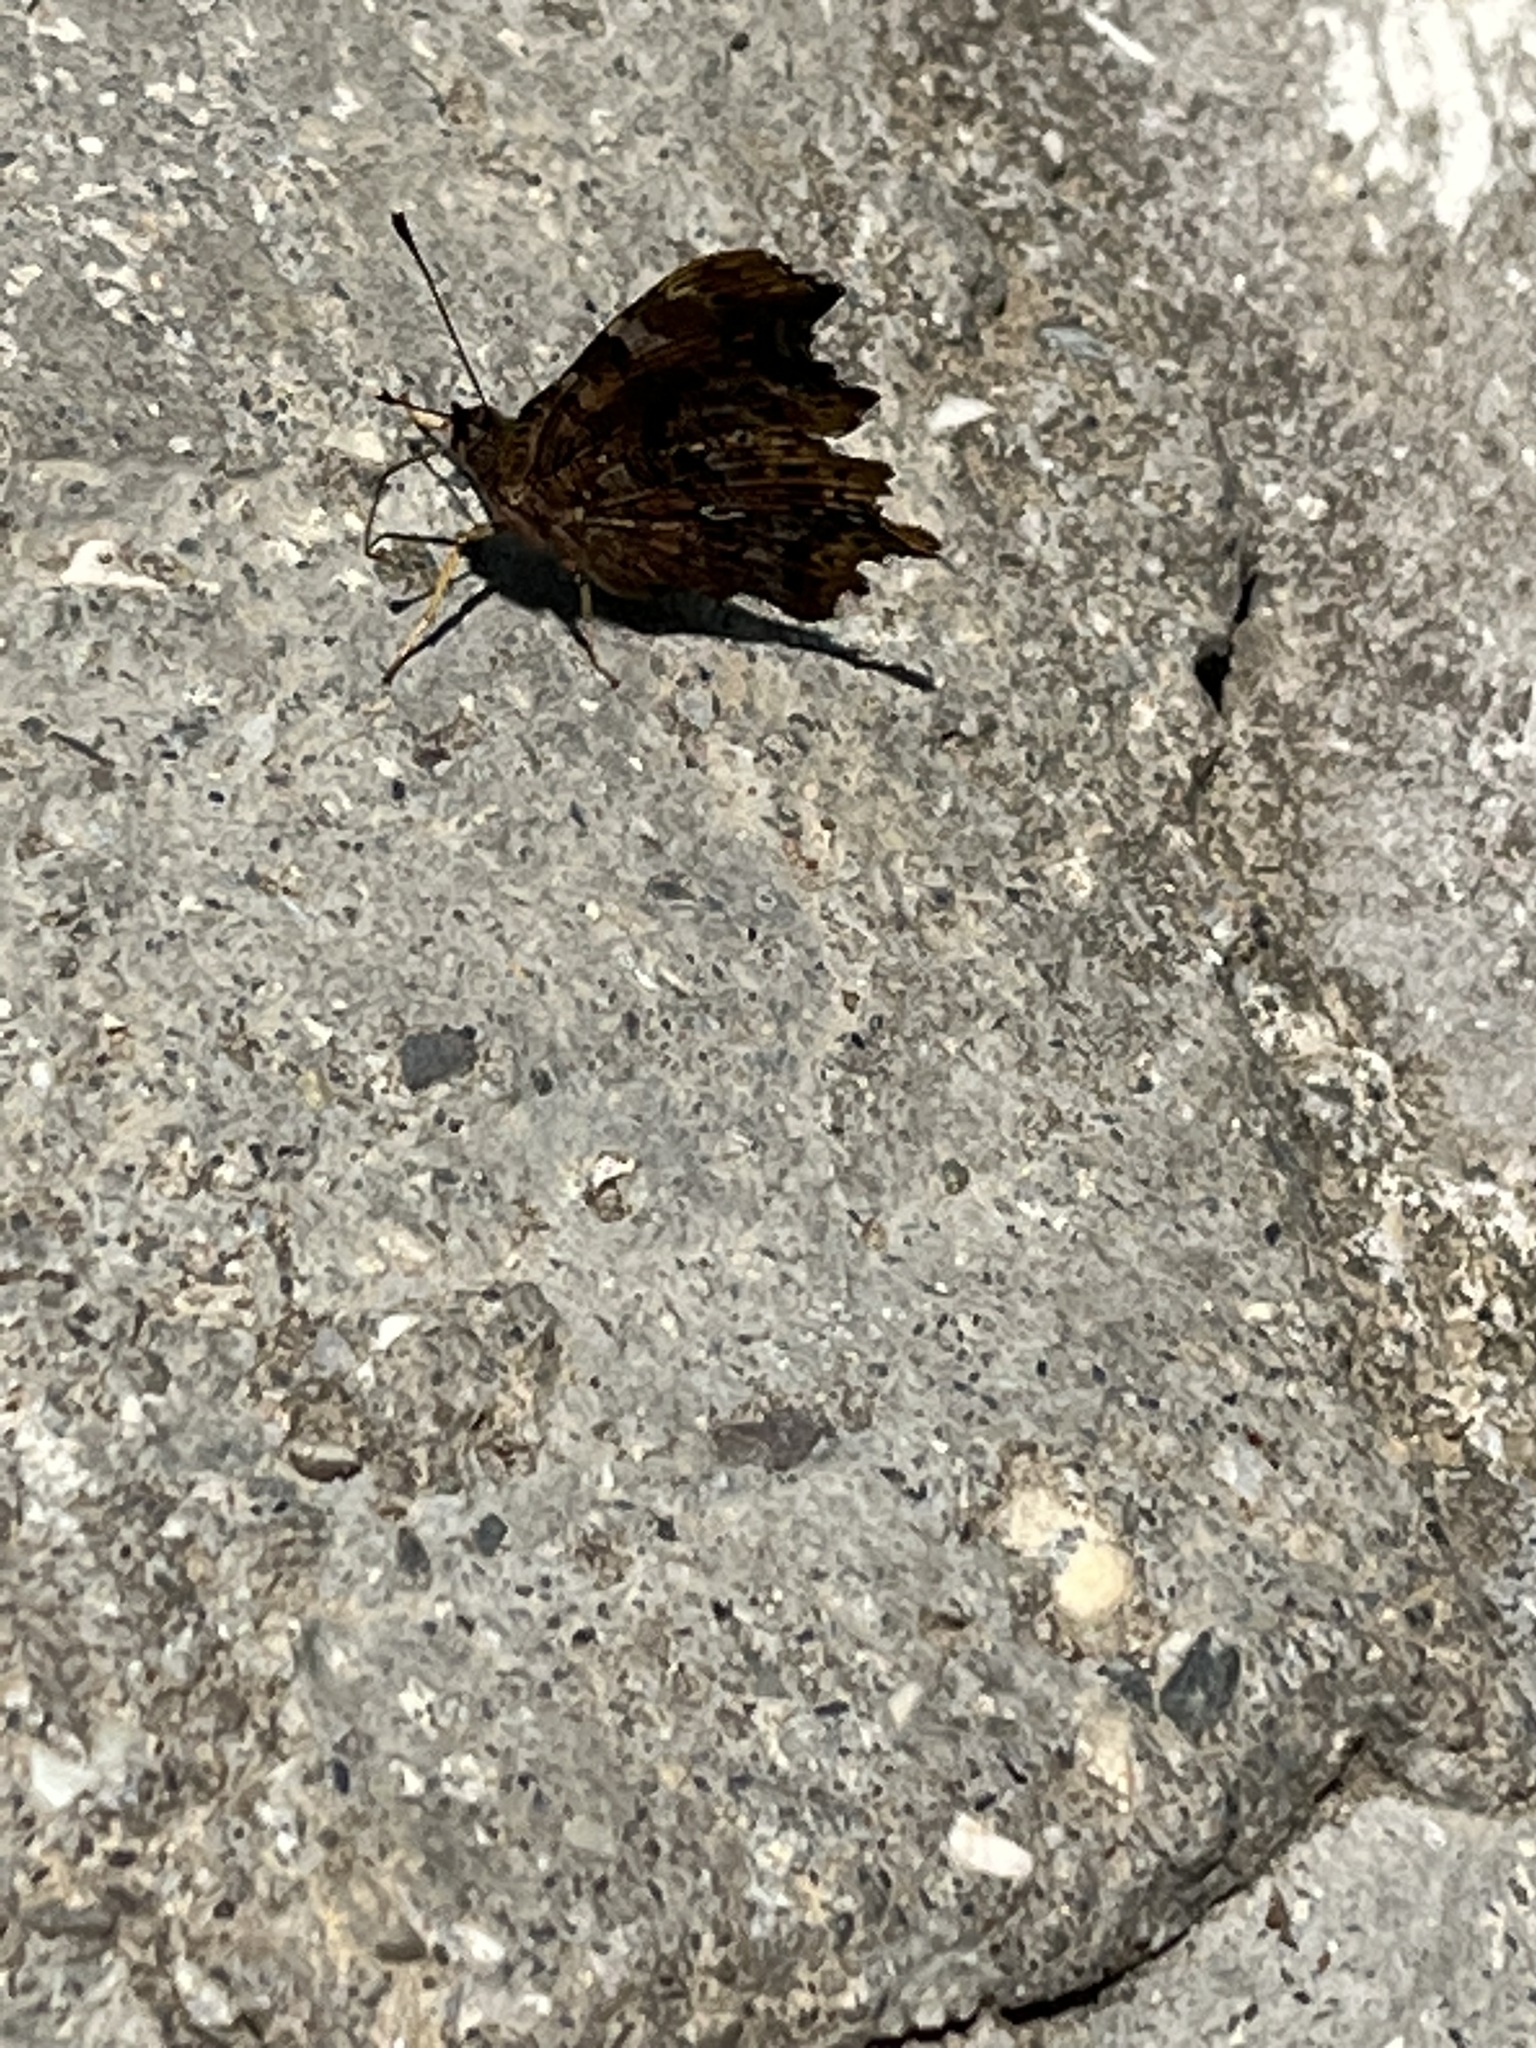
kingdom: Animalia
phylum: Arthropoda
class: Insecta
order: Lepidoptera
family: Nymphalidae
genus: Polygonia
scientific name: Polygonia c-album
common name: Comma
